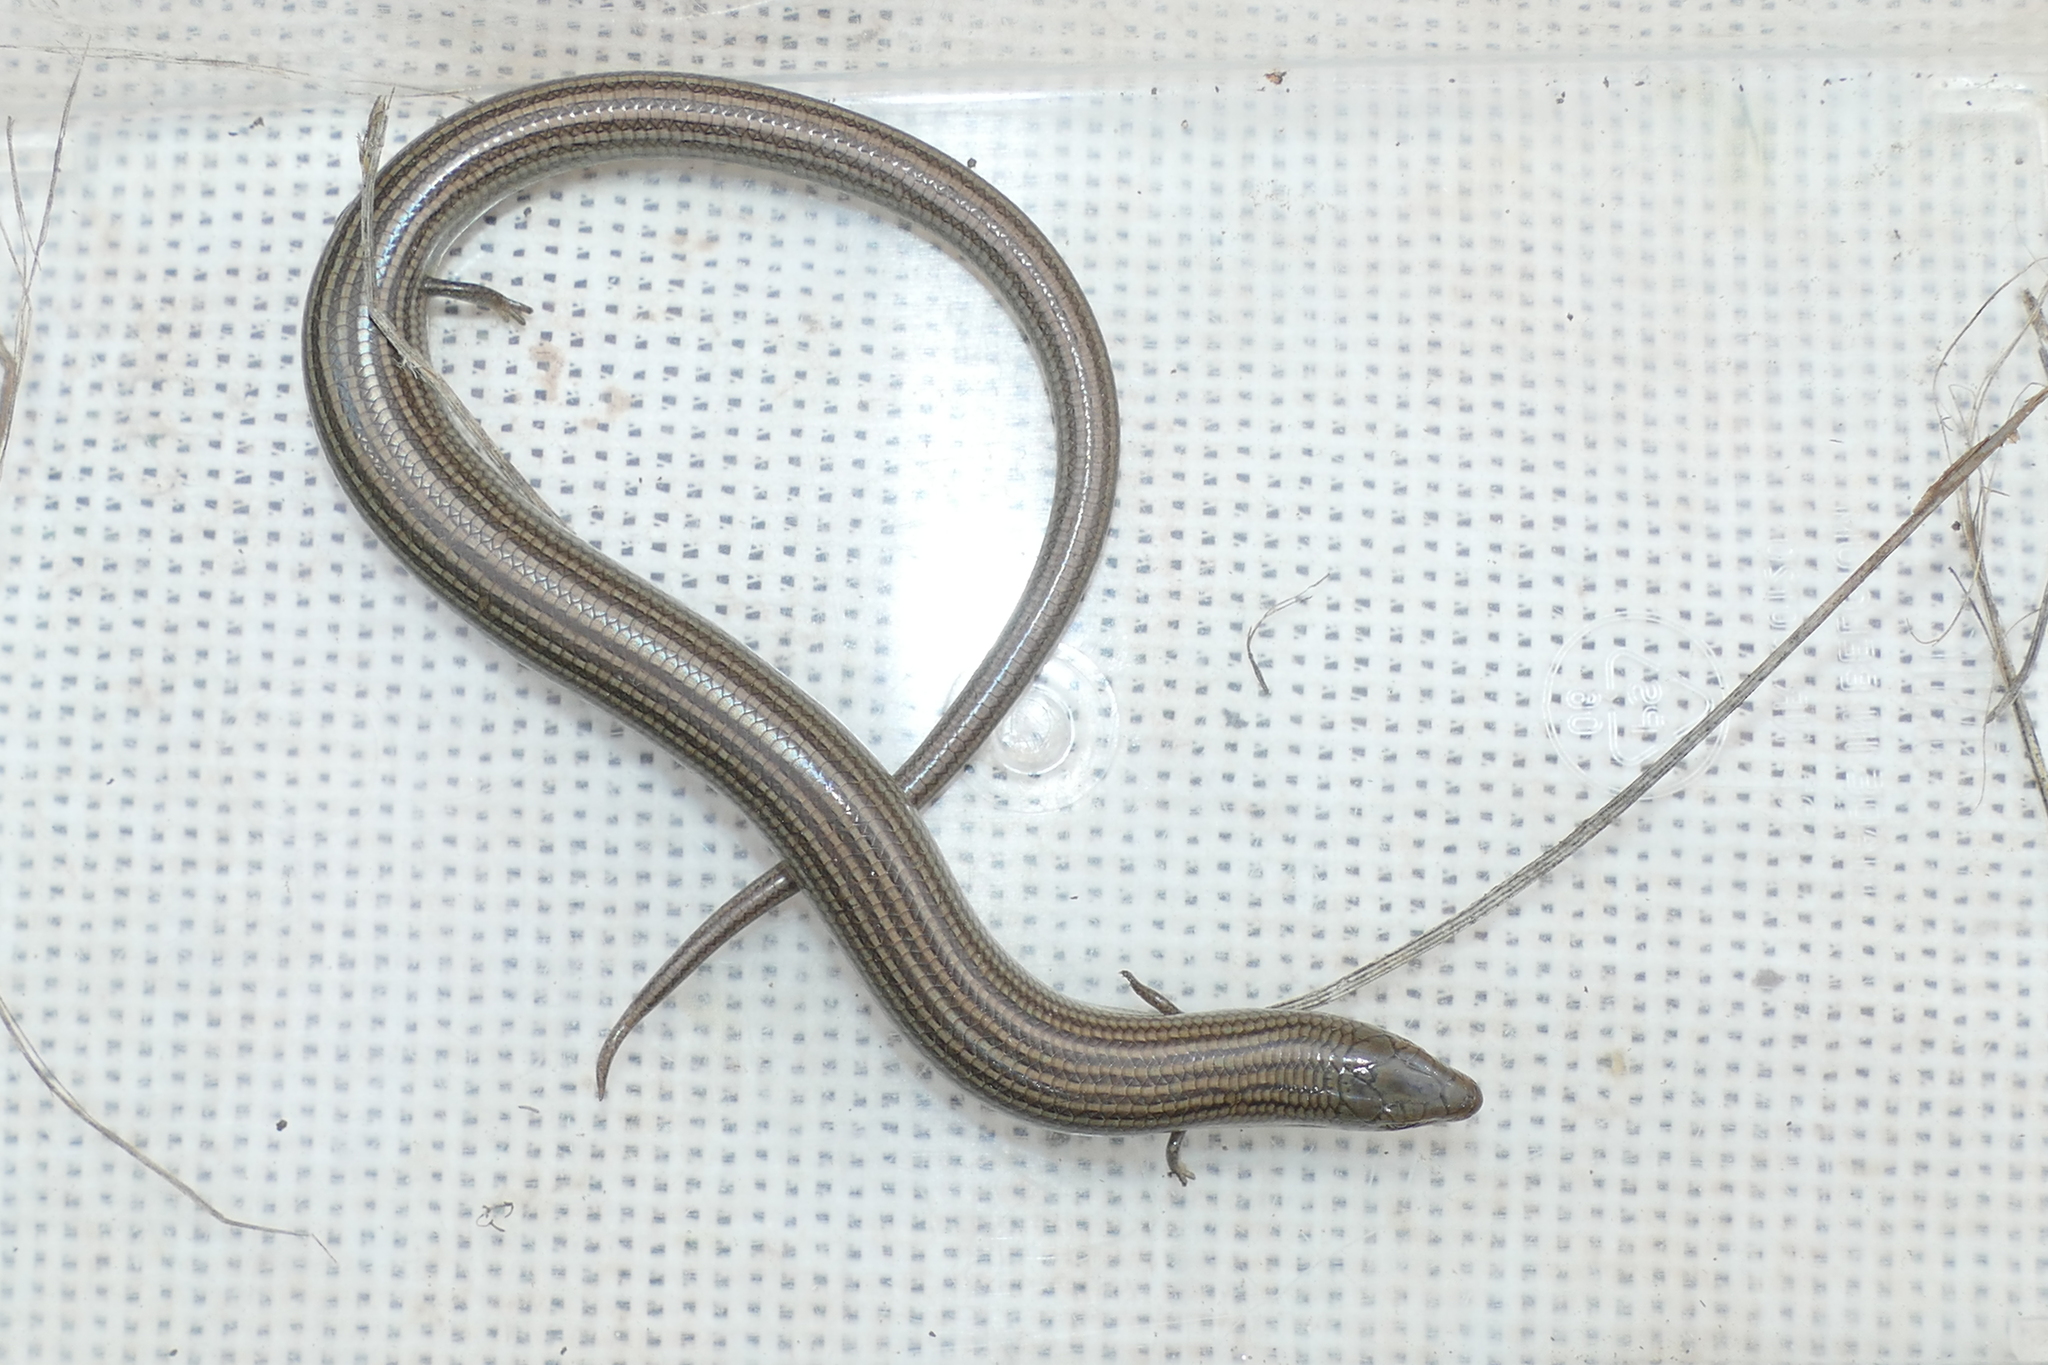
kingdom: Animalia
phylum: Chordata
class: Squamata
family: Scincidae
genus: Chalcides
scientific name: Chalcides striatus
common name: Western (or iberian) three-toed skink
